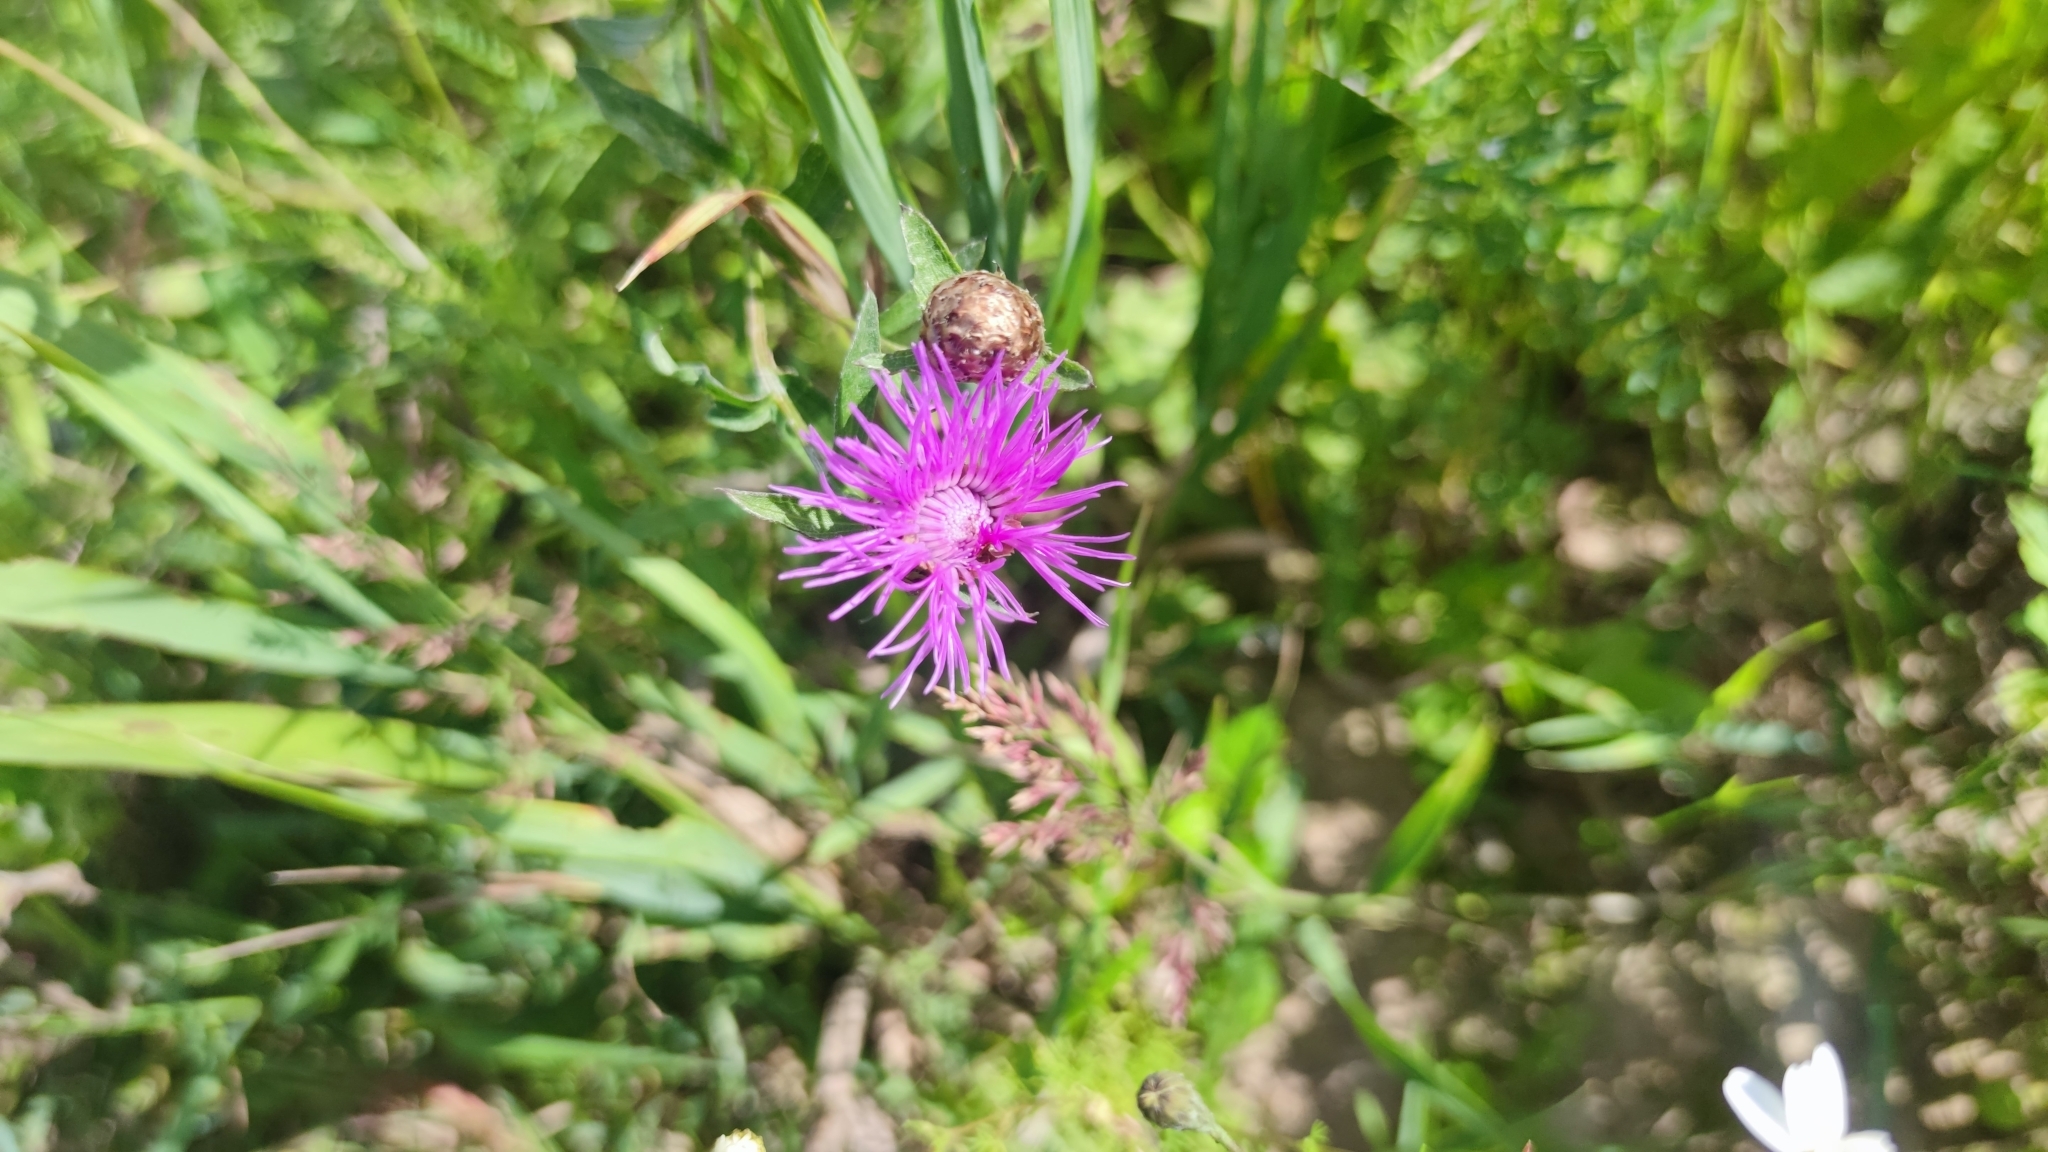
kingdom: Plantae
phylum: Tracheophyta
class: Magnoliopsida
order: Asterales
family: Asteraceae
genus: Centaurea
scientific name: Centaurea jacea
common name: Brown knapweed
